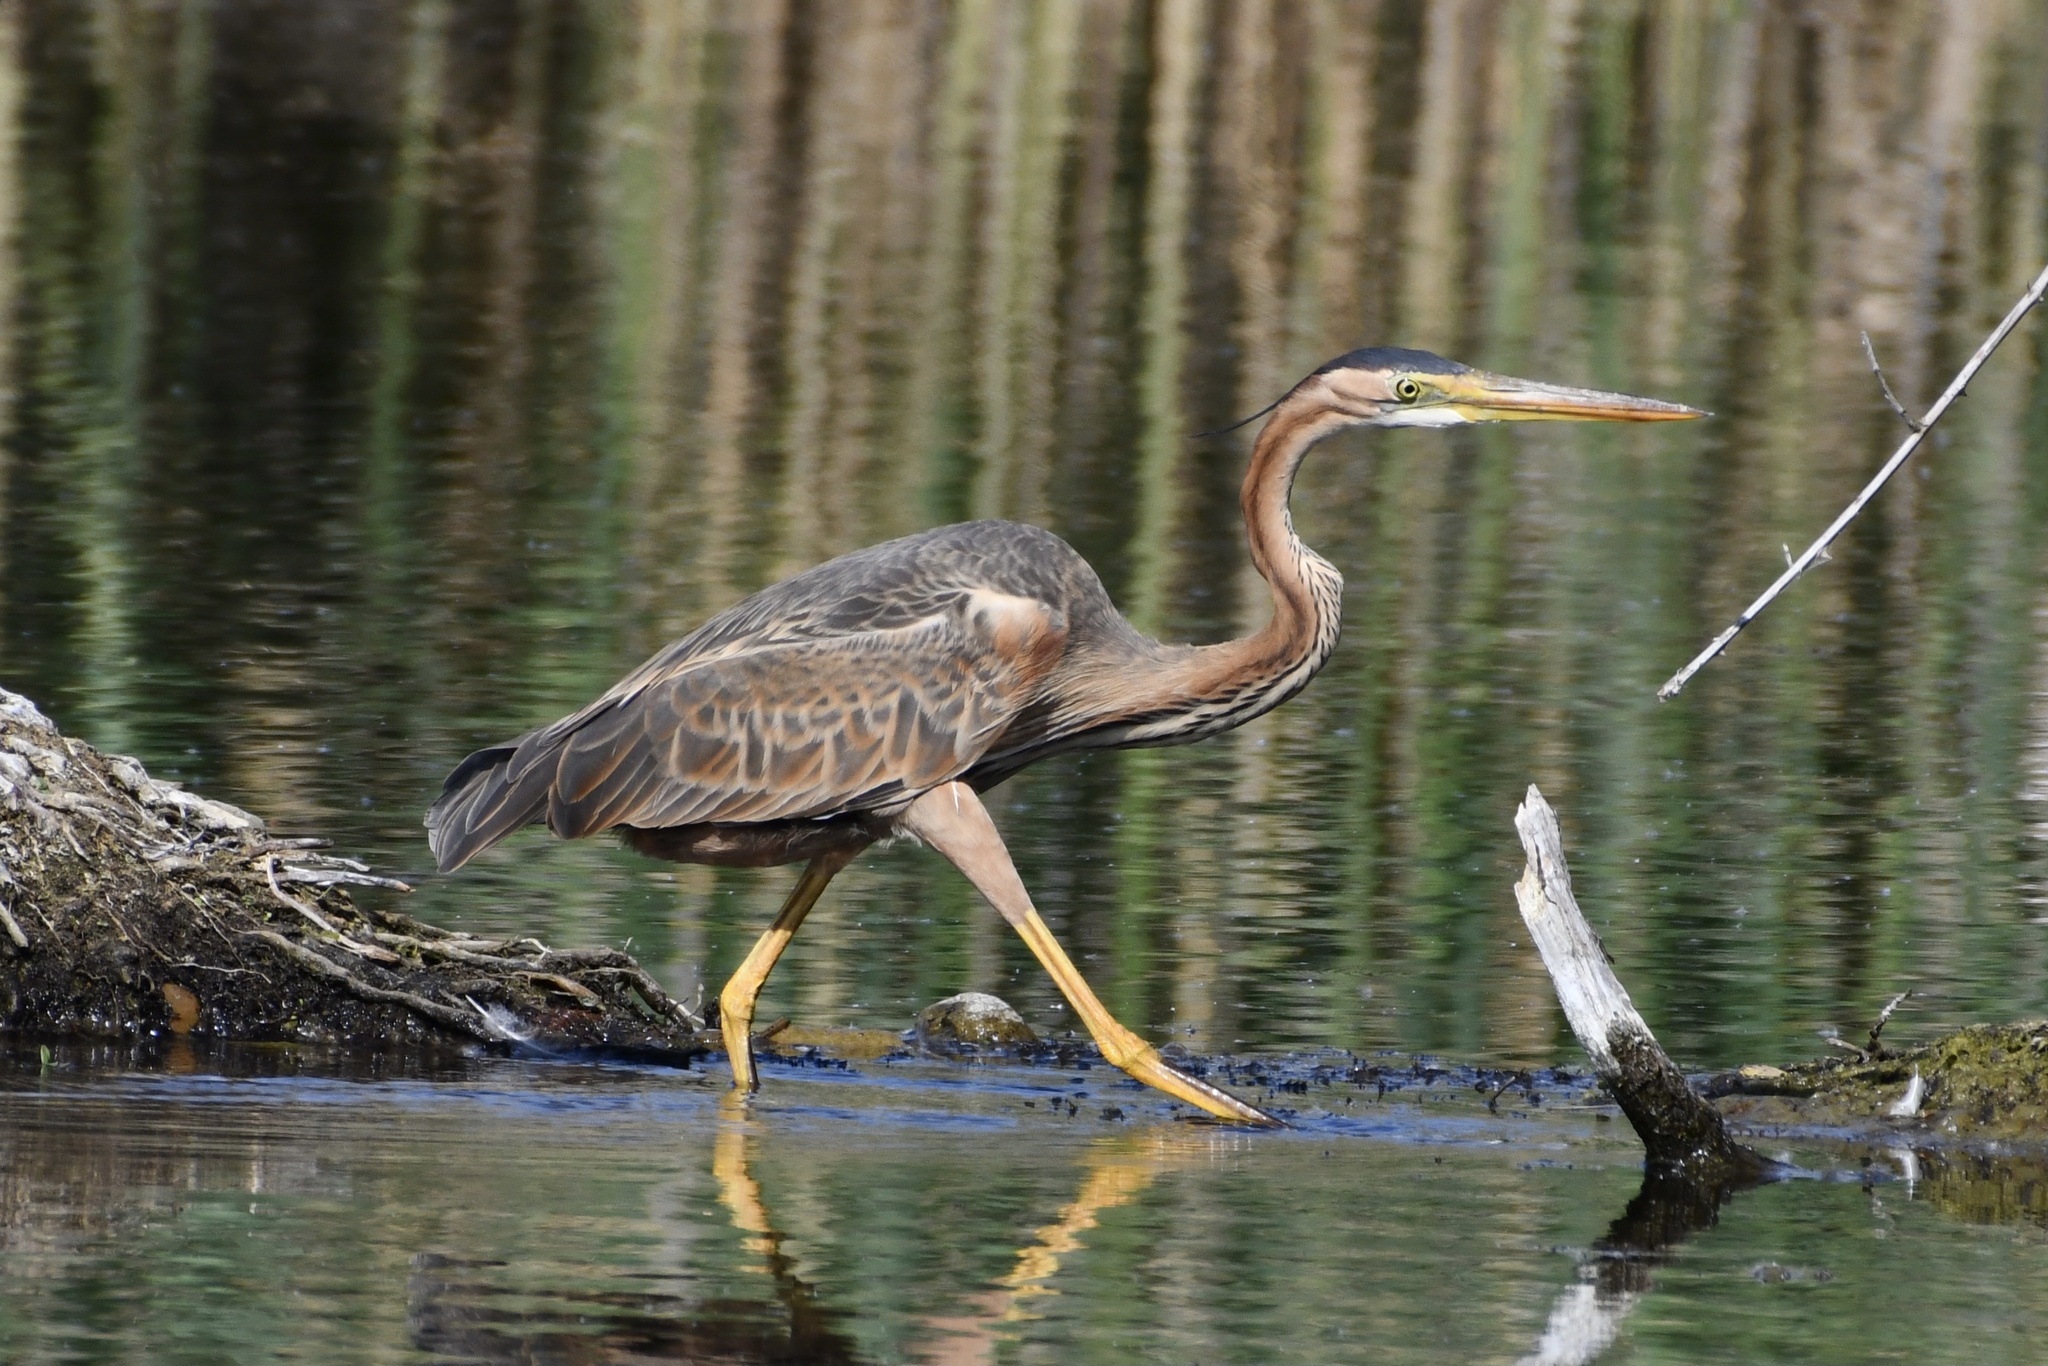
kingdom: Animalia
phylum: Chordata
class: Aves
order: Pelecaniformes
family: Ardeidae
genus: Ardea
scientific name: Ardea purpurea
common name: Purple heron
